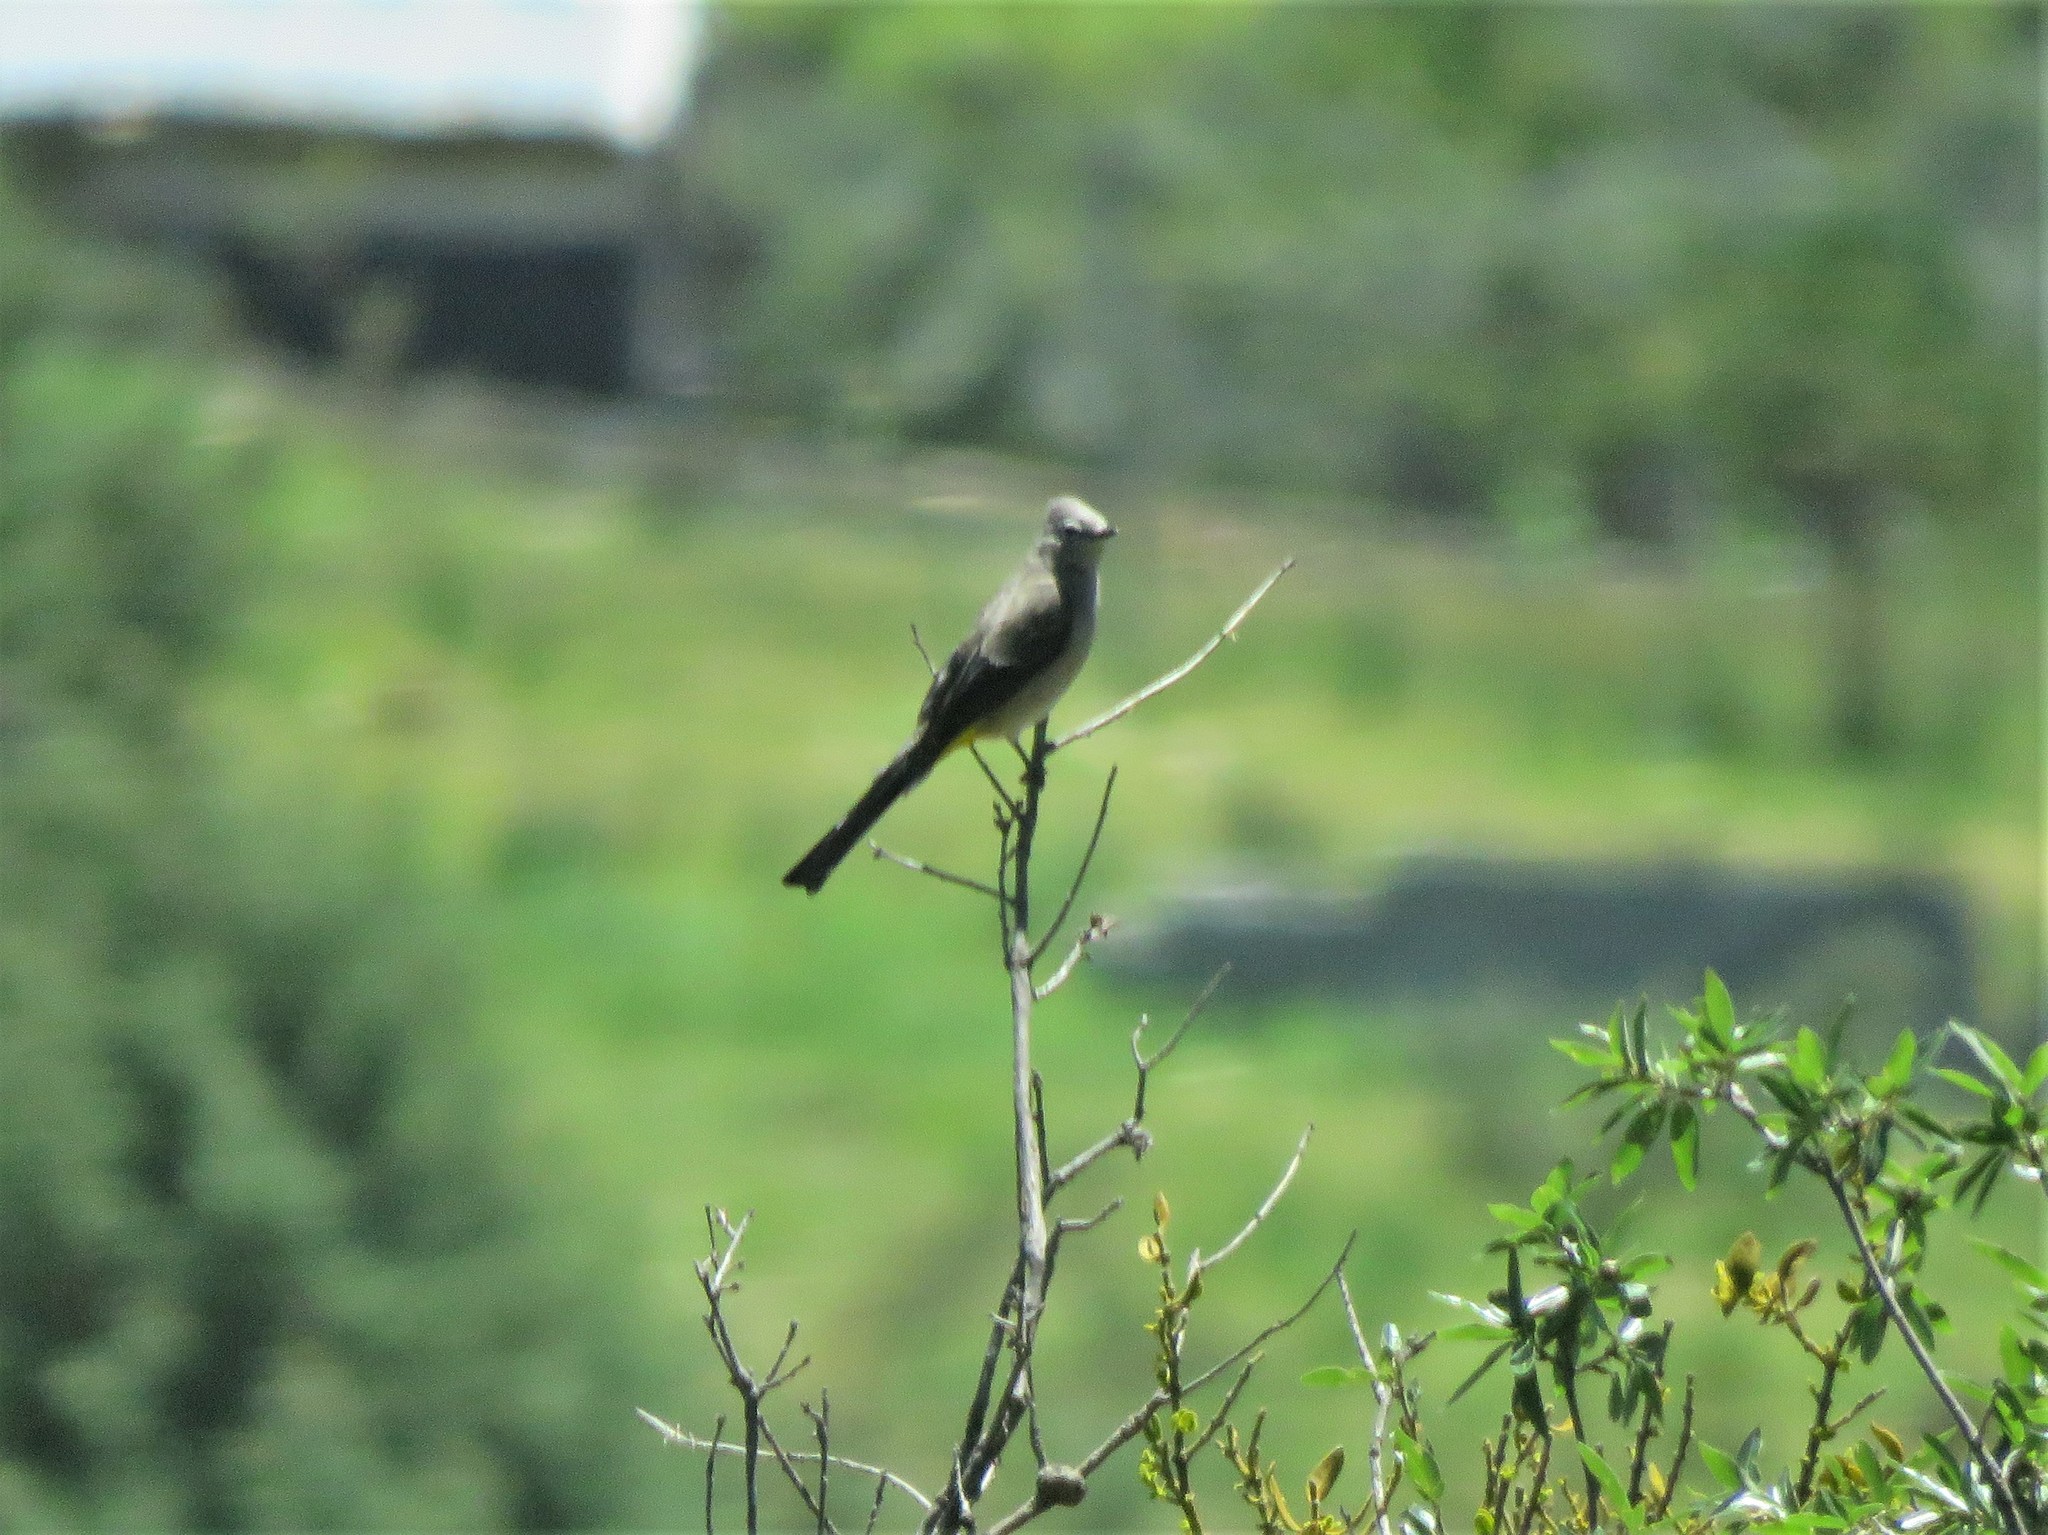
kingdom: Animalia
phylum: Chordata
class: Aves
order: Passeriformes
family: Ptilogonatidae
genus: Ptilogonys
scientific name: Ptilogonys cinereus
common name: Gray silky-flycatcher
